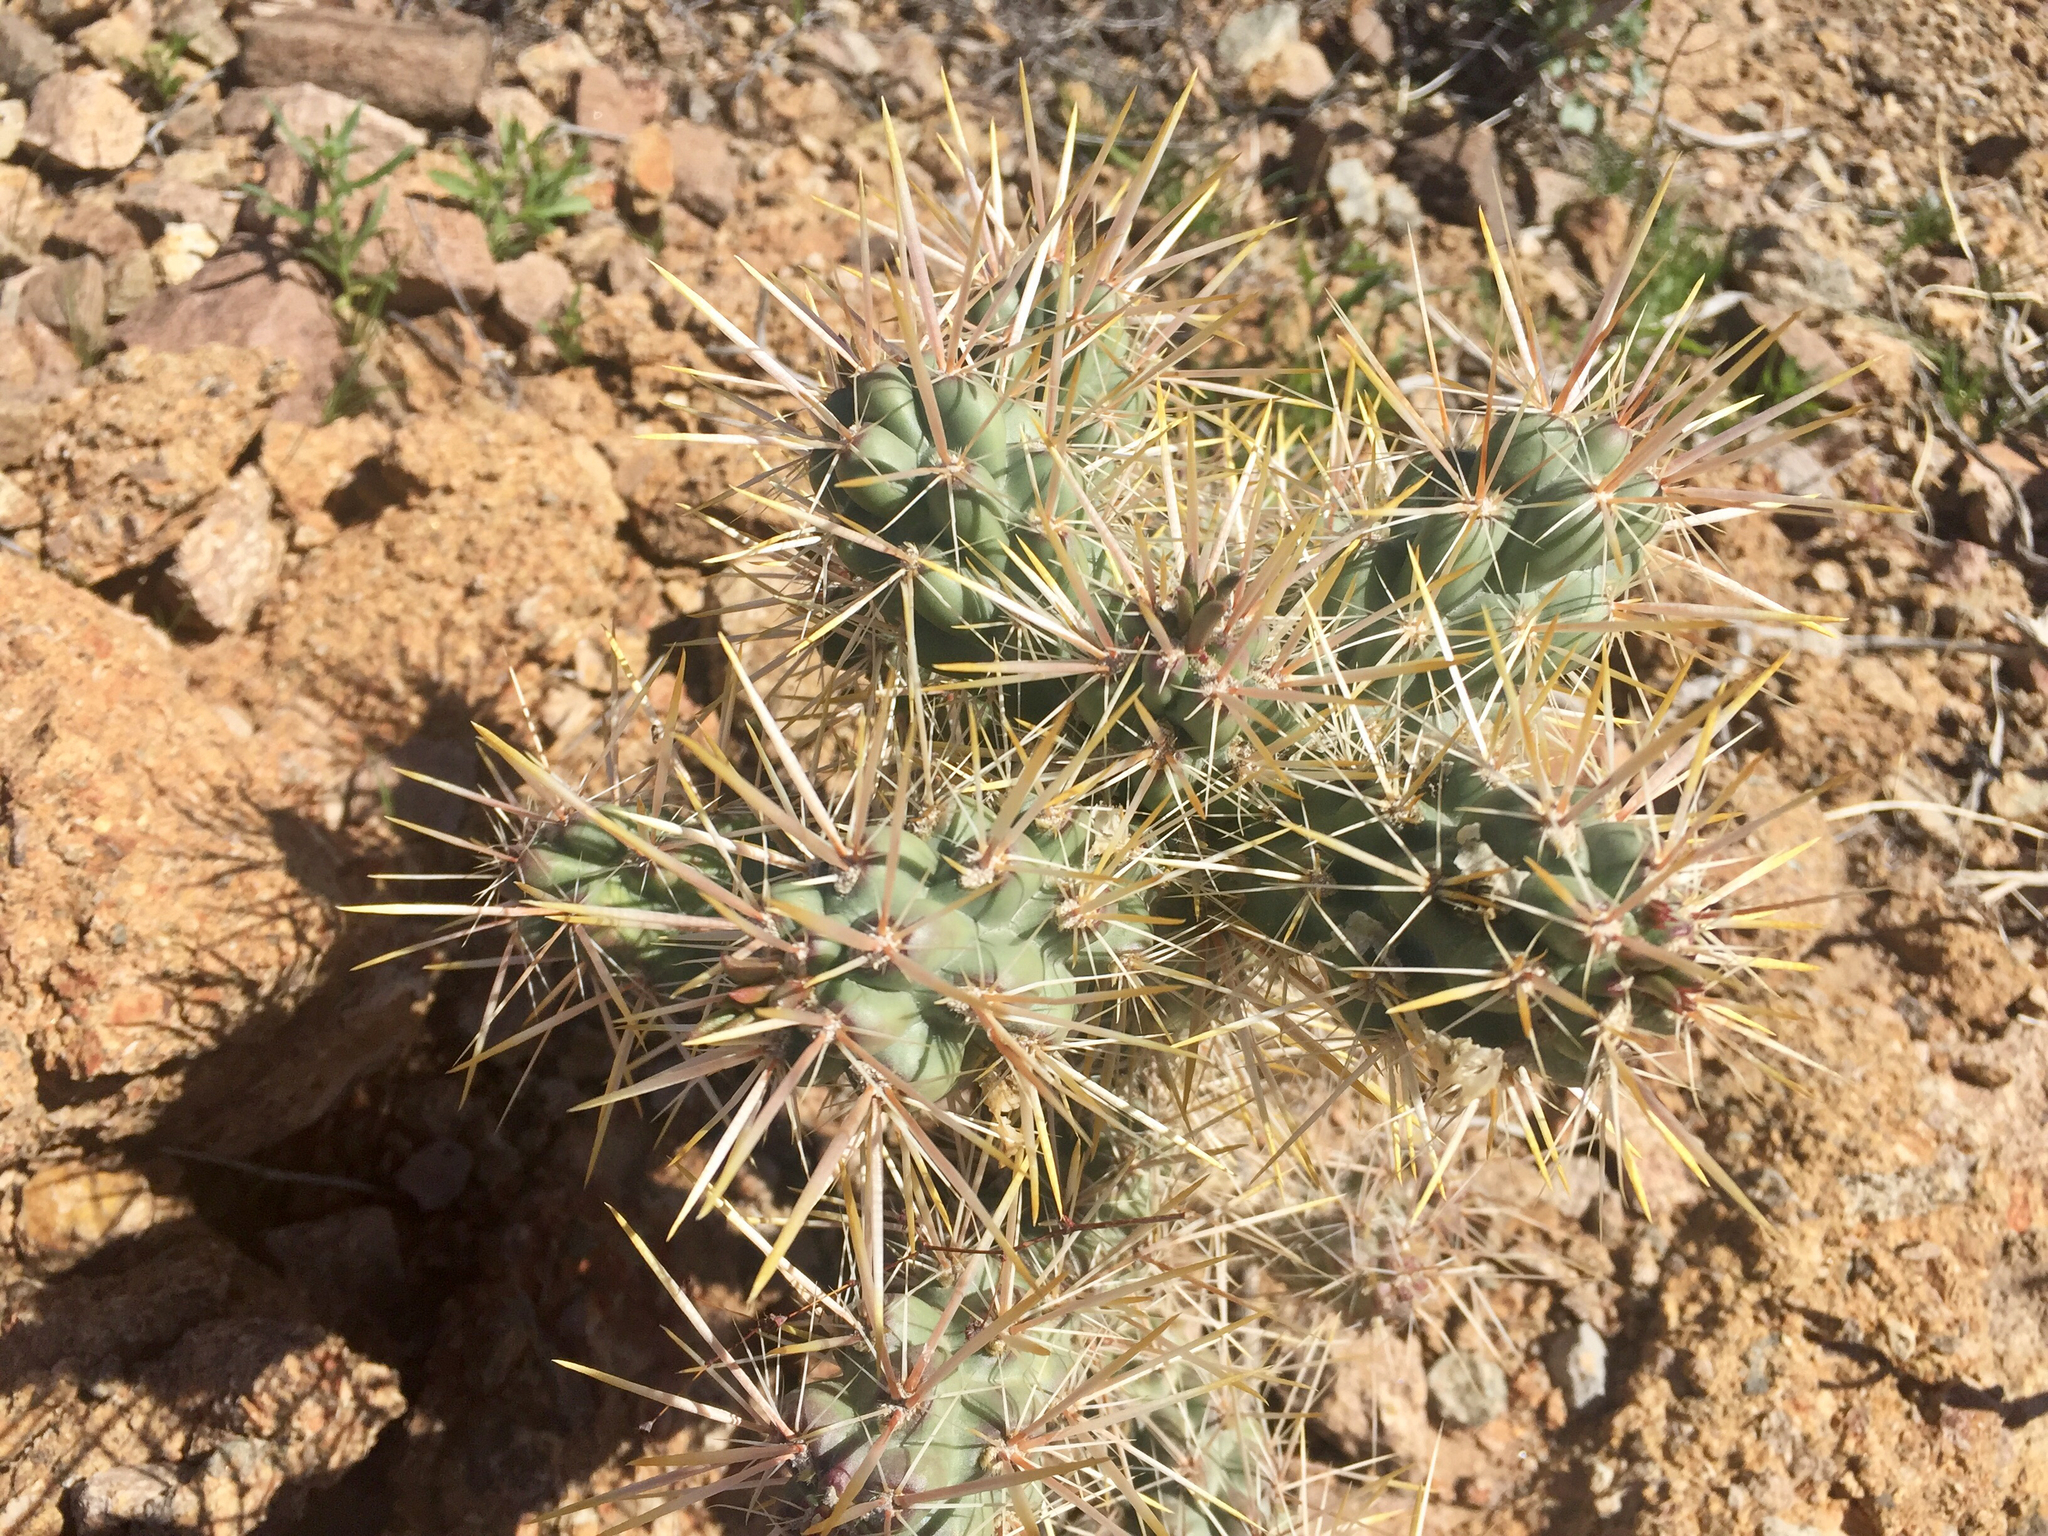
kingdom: Plantae
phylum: Tracheophyta
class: Magnoliopsida
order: Caryophyllales
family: Cactaceae
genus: Cylindropuntia
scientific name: Cylindropuntia acanthocarpa
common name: Buckhorn cholla
